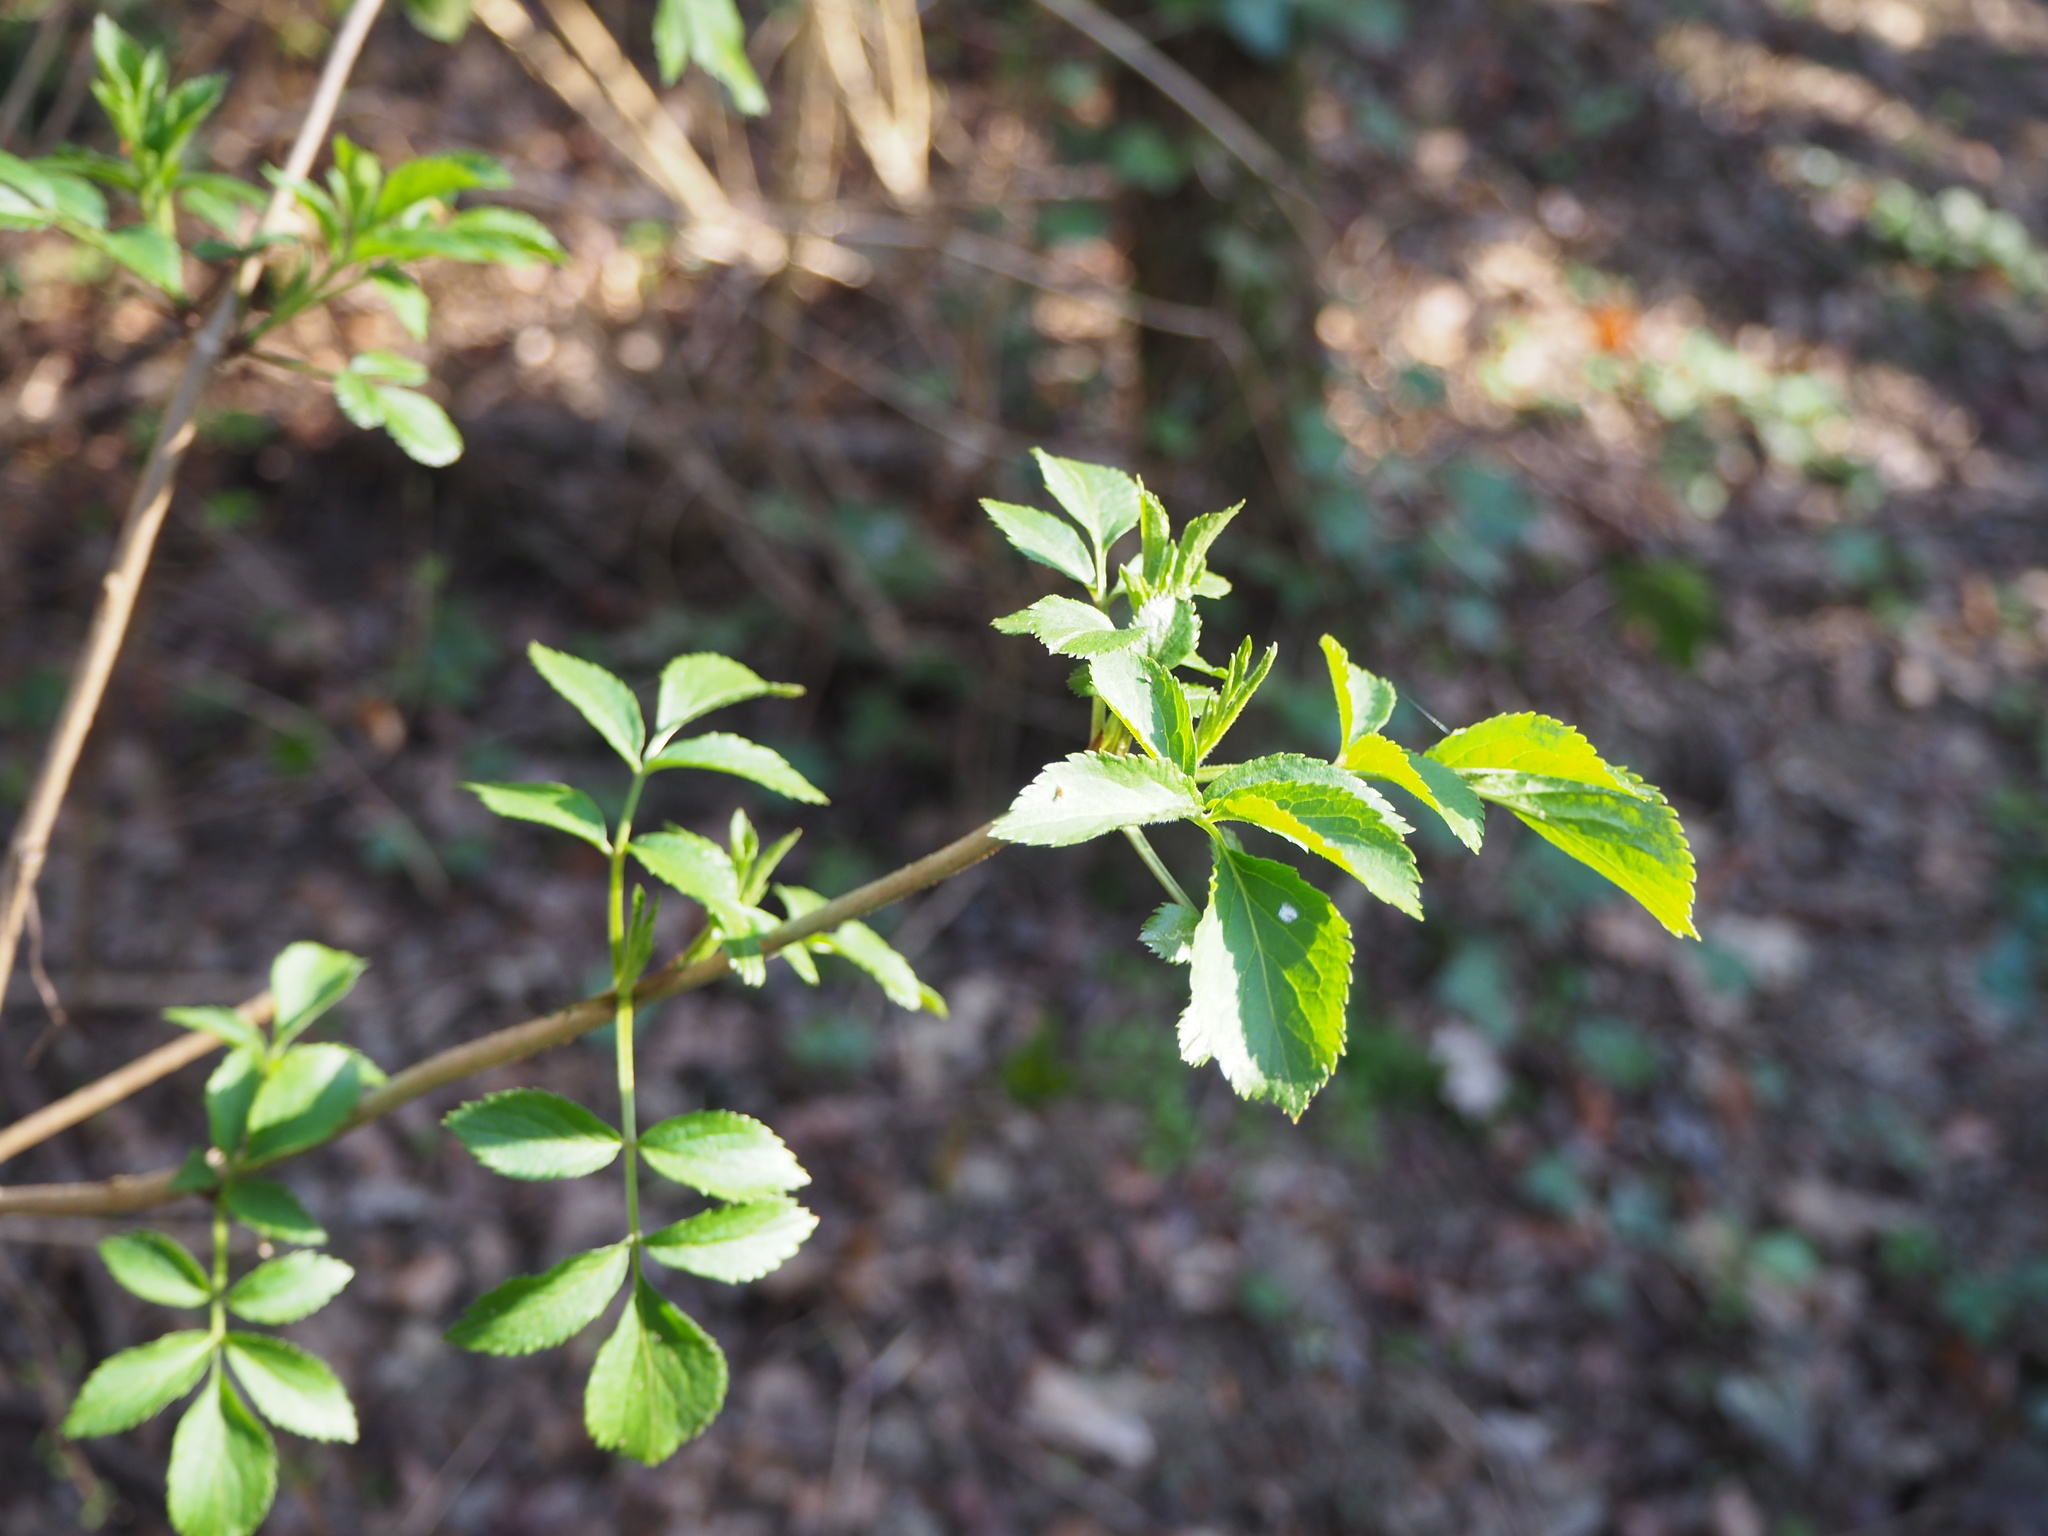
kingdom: Plantae
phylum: Tracheophyta
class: Magnoliopsida
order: Dipsacales
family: Viburnaceae
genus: Sambucus
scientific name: Sambucus nigra
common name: Elder
